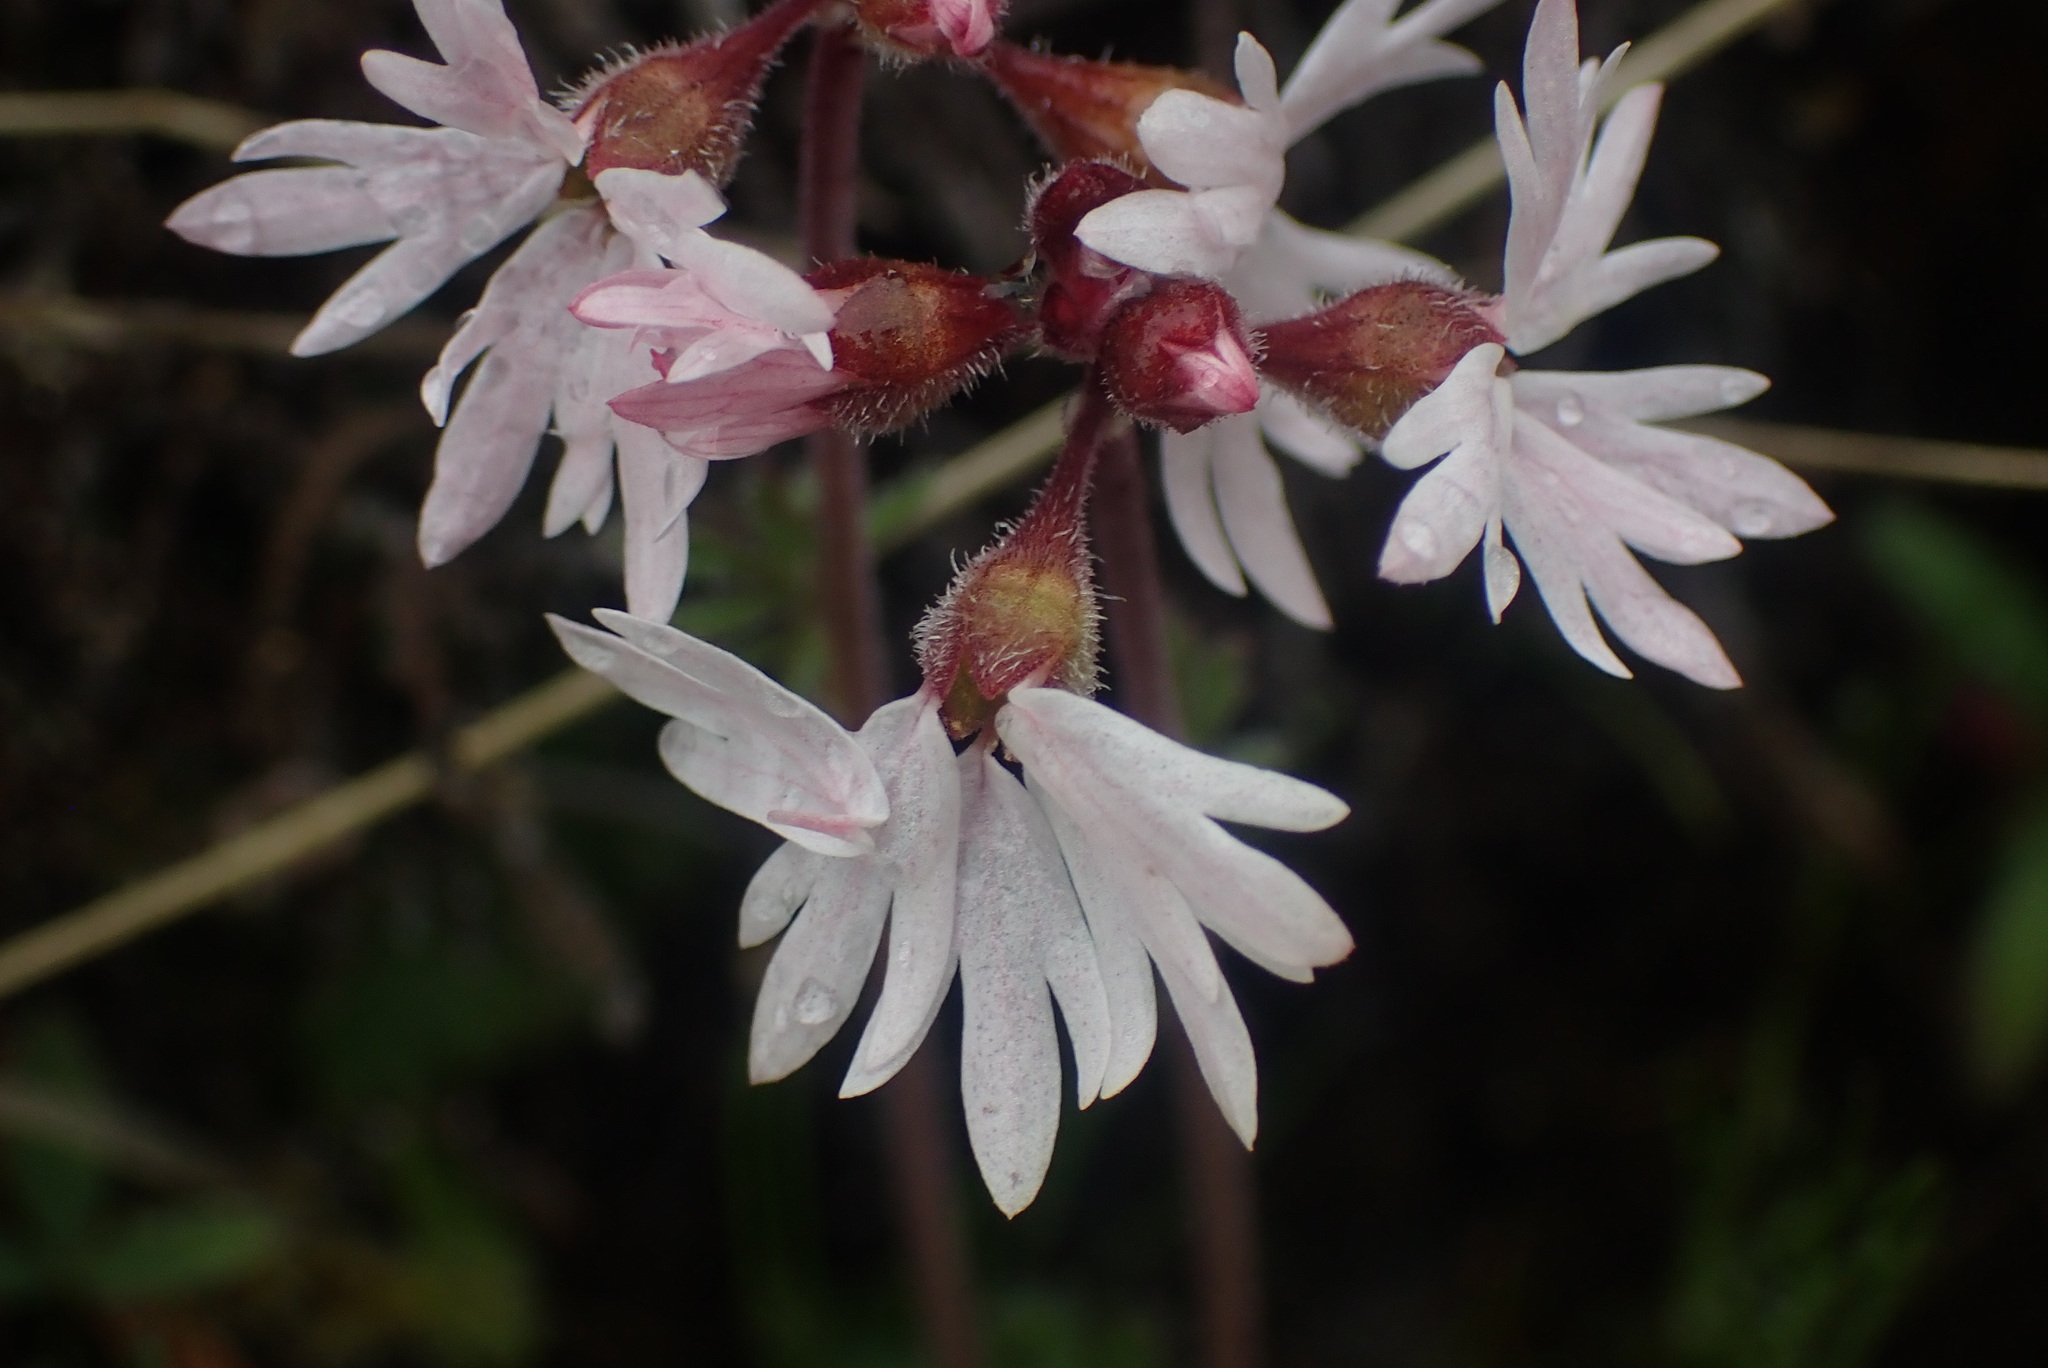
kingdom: Plantae
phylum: Tracheophyta
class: Magnoliopsida
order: Saxifragales
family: Saxifragaceae
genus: Lithophragma
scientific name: Lithophragma parviflorum
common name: Small-flowered fringe-cup
